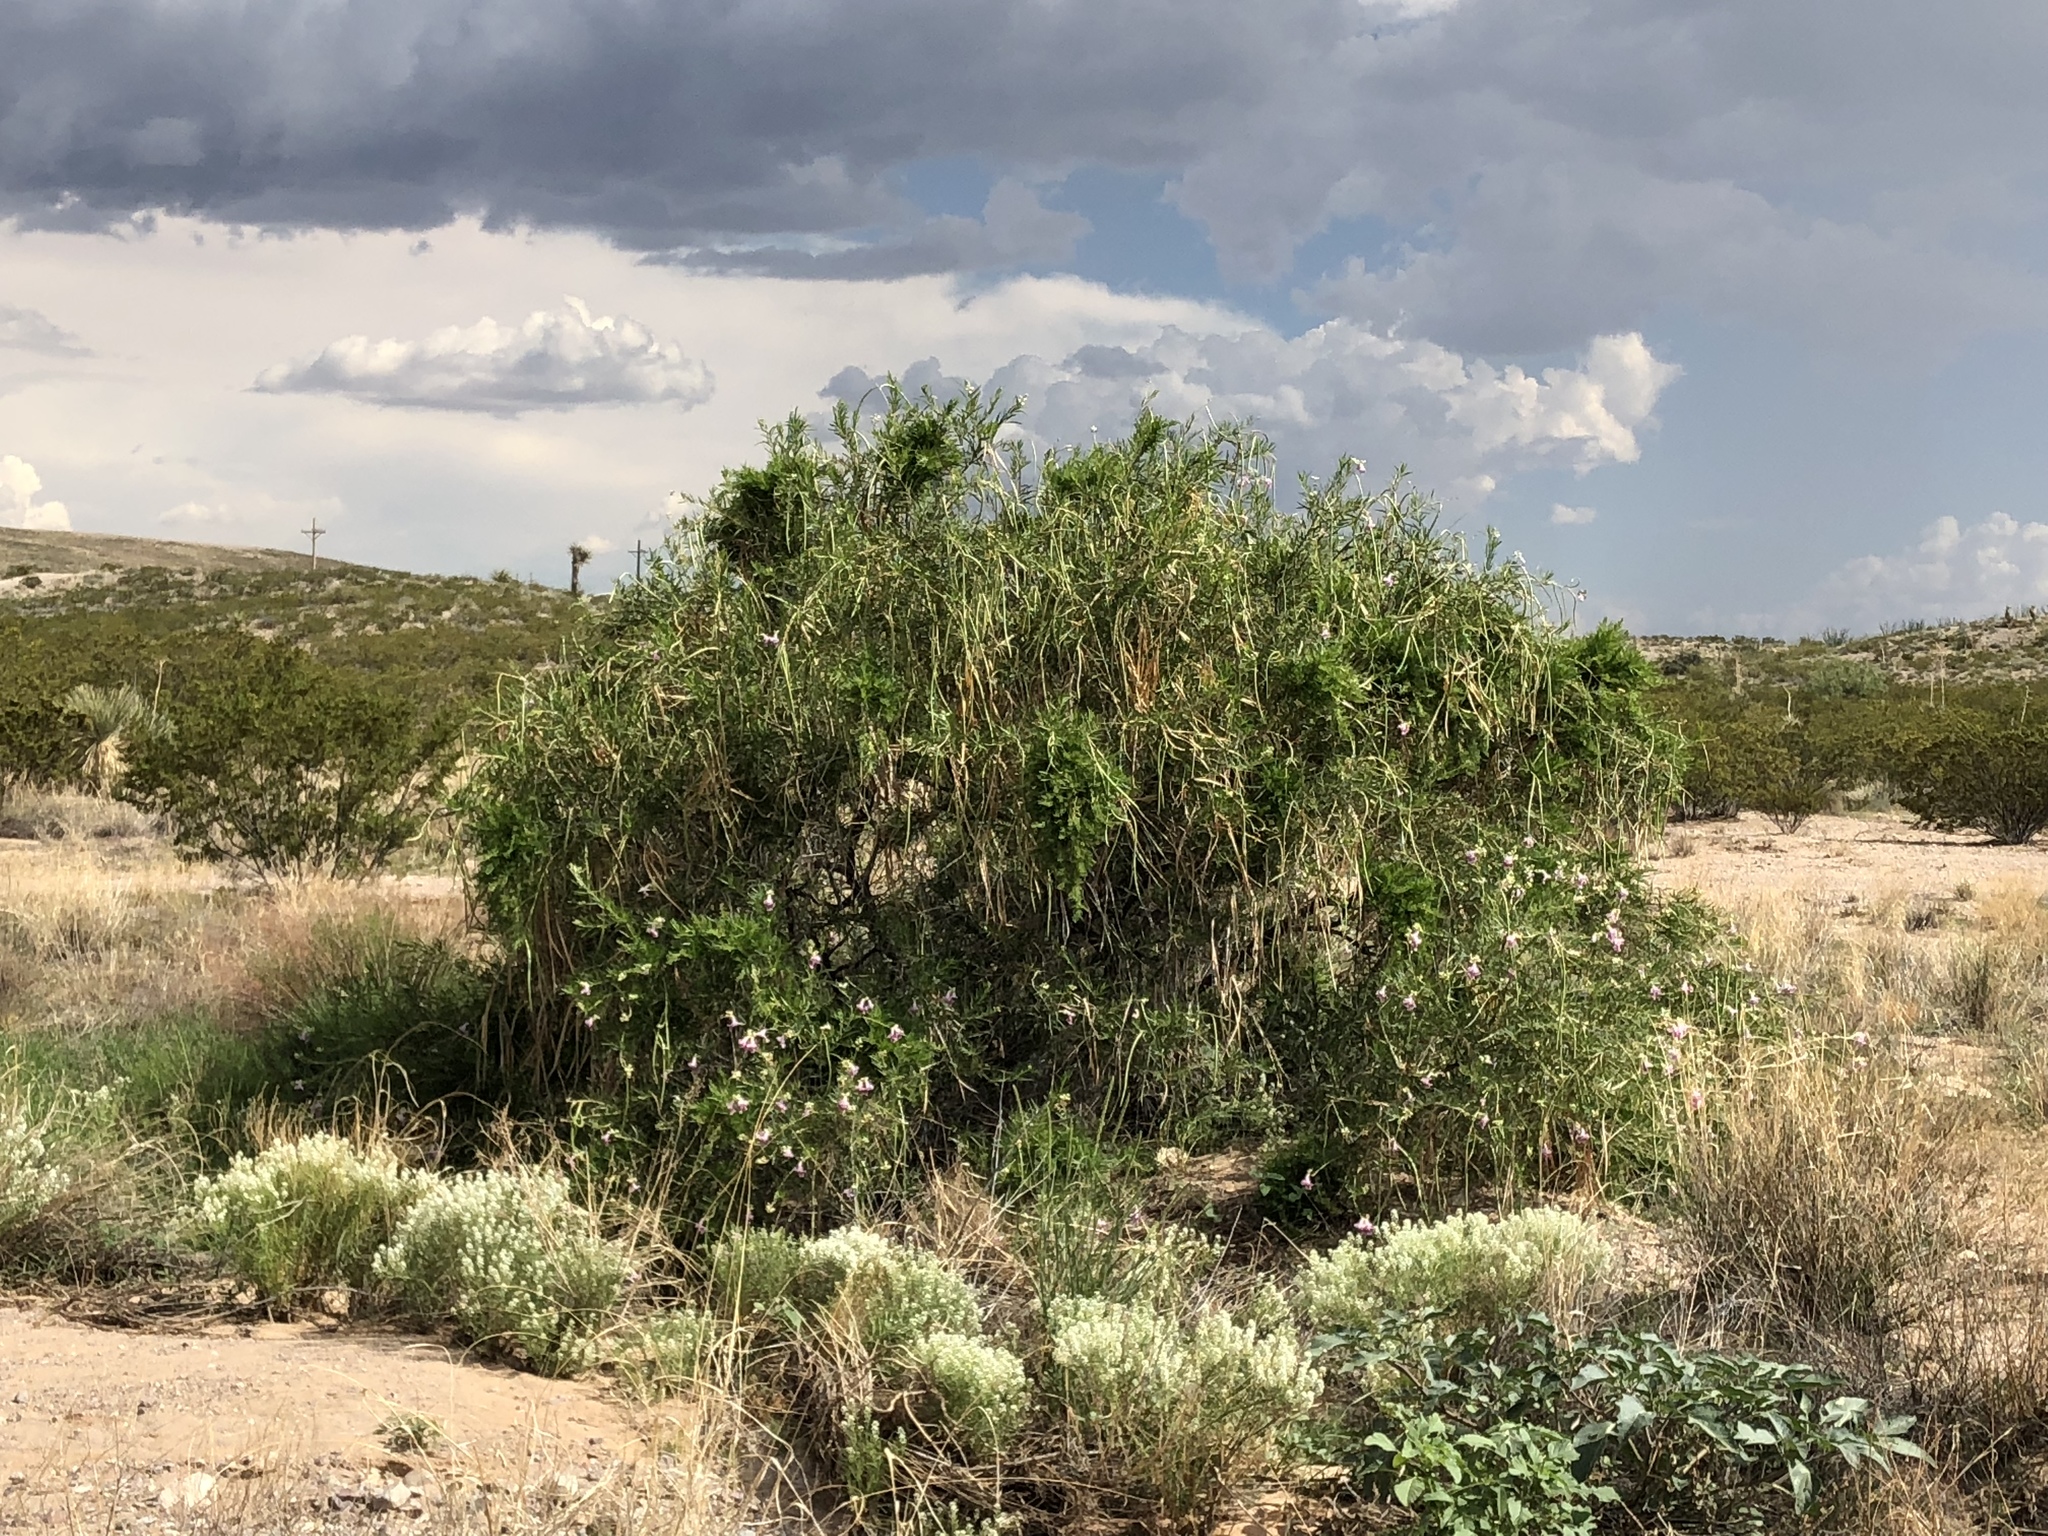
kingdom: Plantae
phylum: Tracheophyta
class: Magnoliopsida
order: Lamiales
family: Bignoniaceae
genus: Chilopsis
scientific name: Chilopsis linearis
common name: Desert-willow
